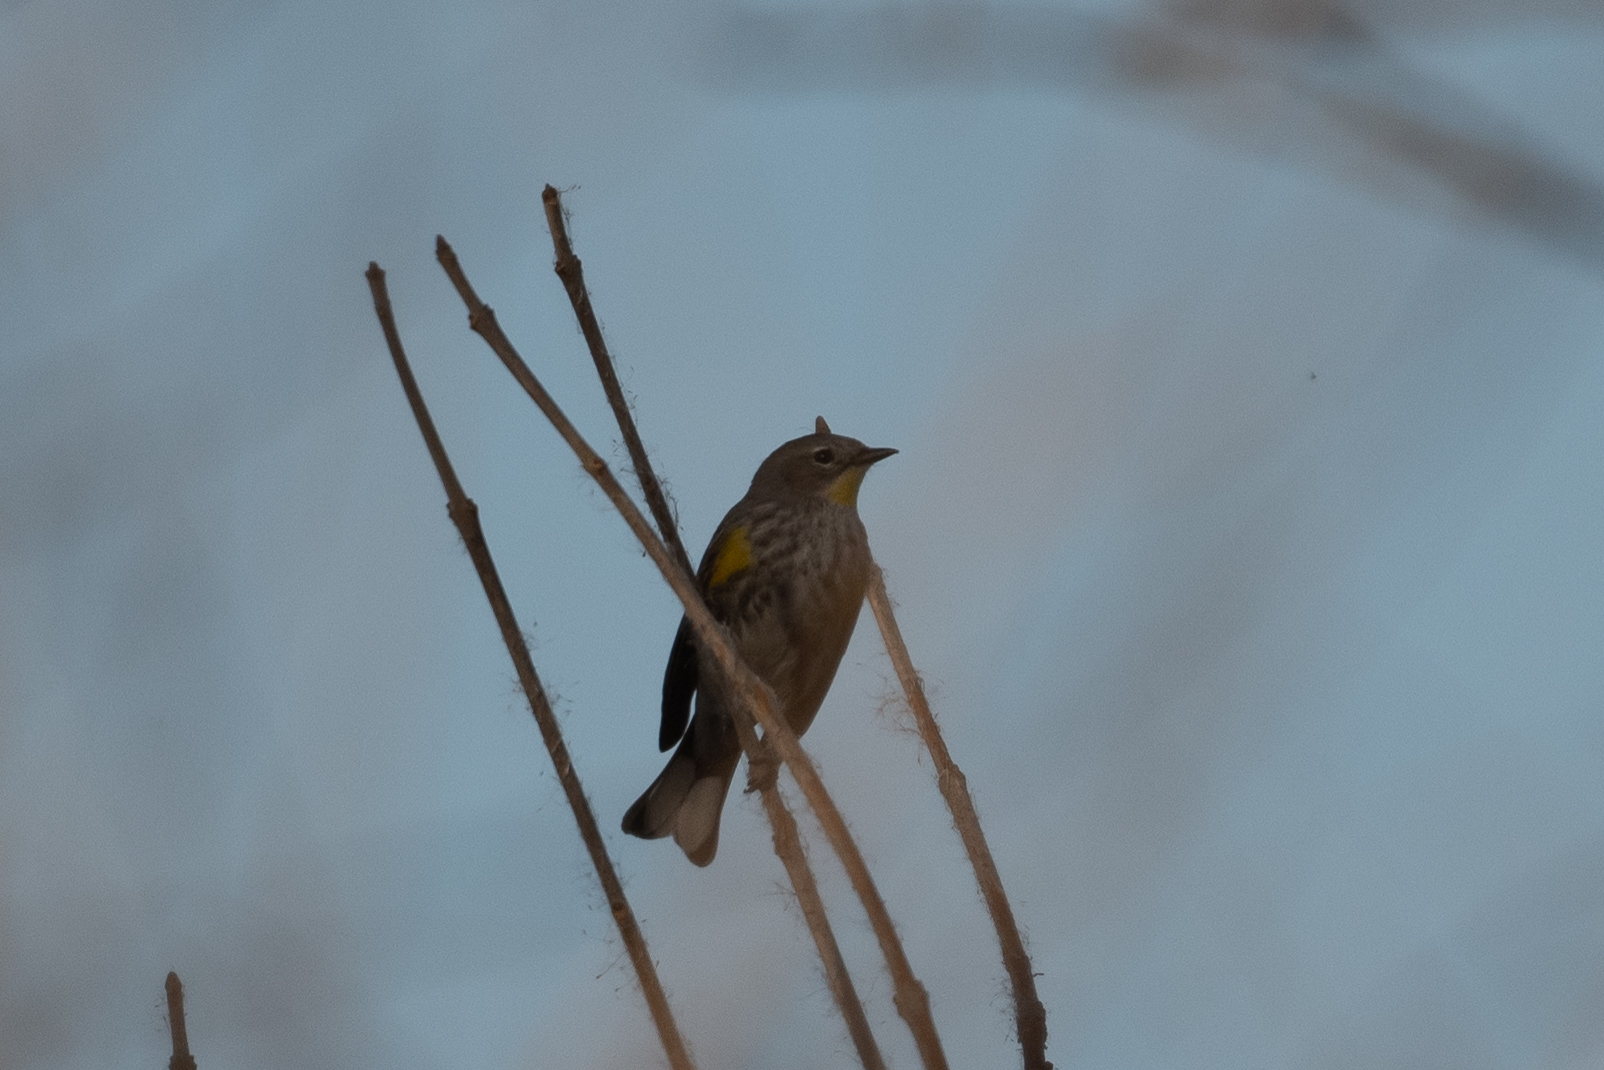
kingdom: Animalia
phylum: Chordata
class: Aves
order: Passeriformes
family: Parulidae
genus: Setophaga
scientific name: Setophaga coronata
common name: Myrtle warbler
